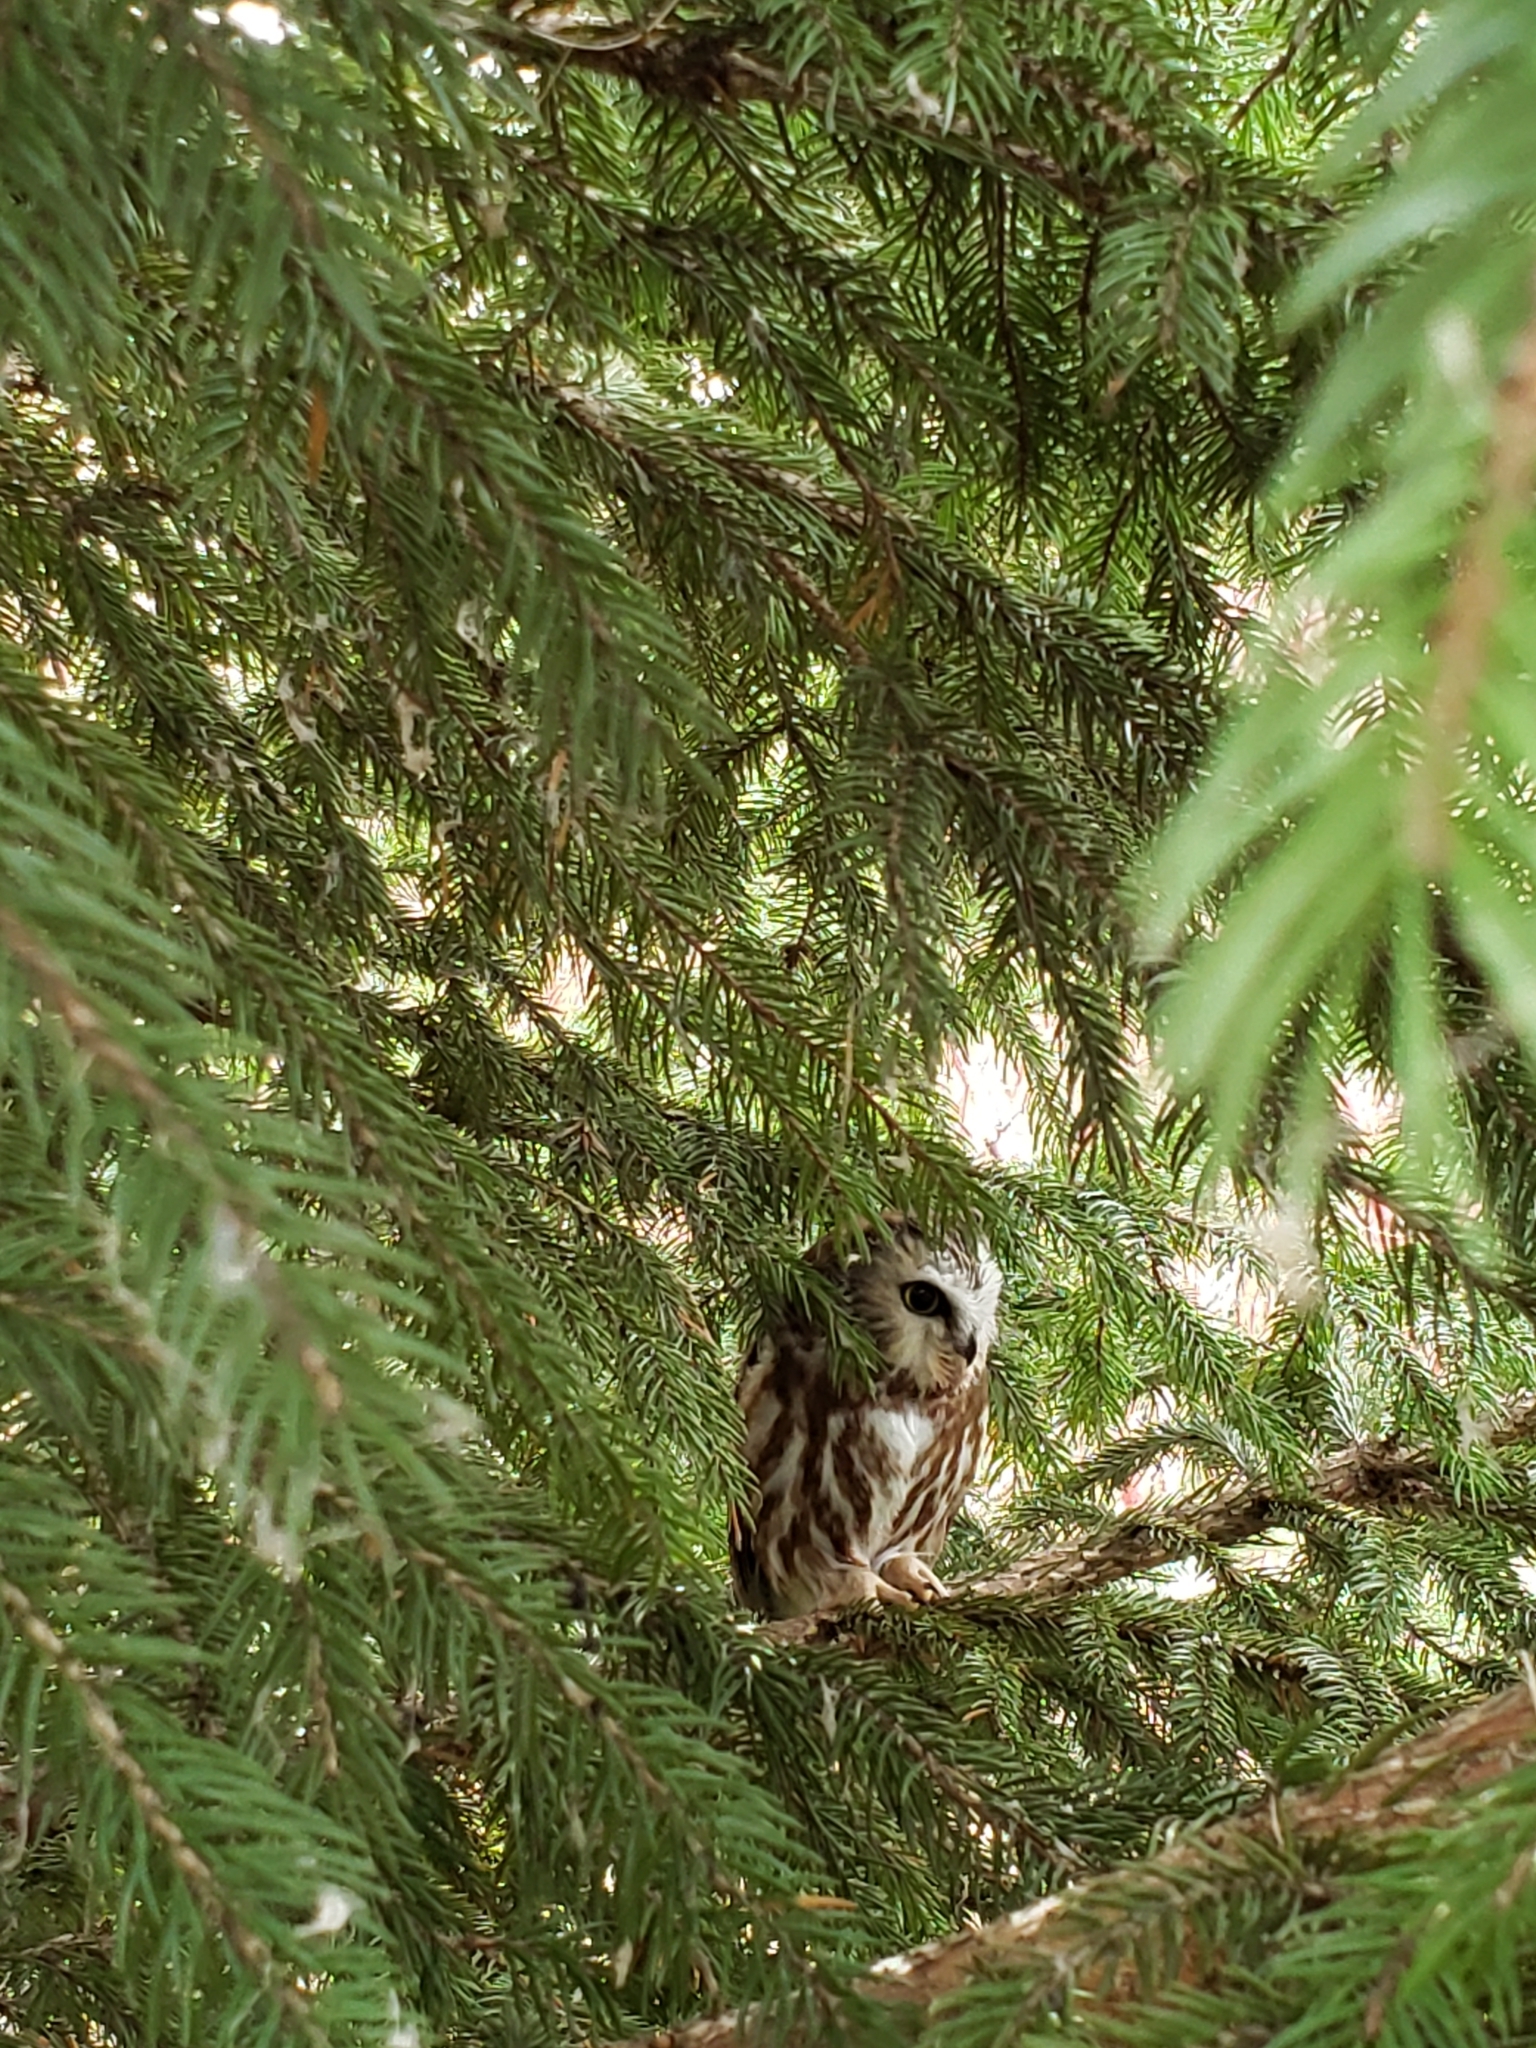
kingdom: Animalia
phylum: Chordata
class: Aves
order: Strigiformes
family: Strigidae
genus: Aegolius
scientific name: Aegolius acadicus
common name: Northern saw-whet owl
